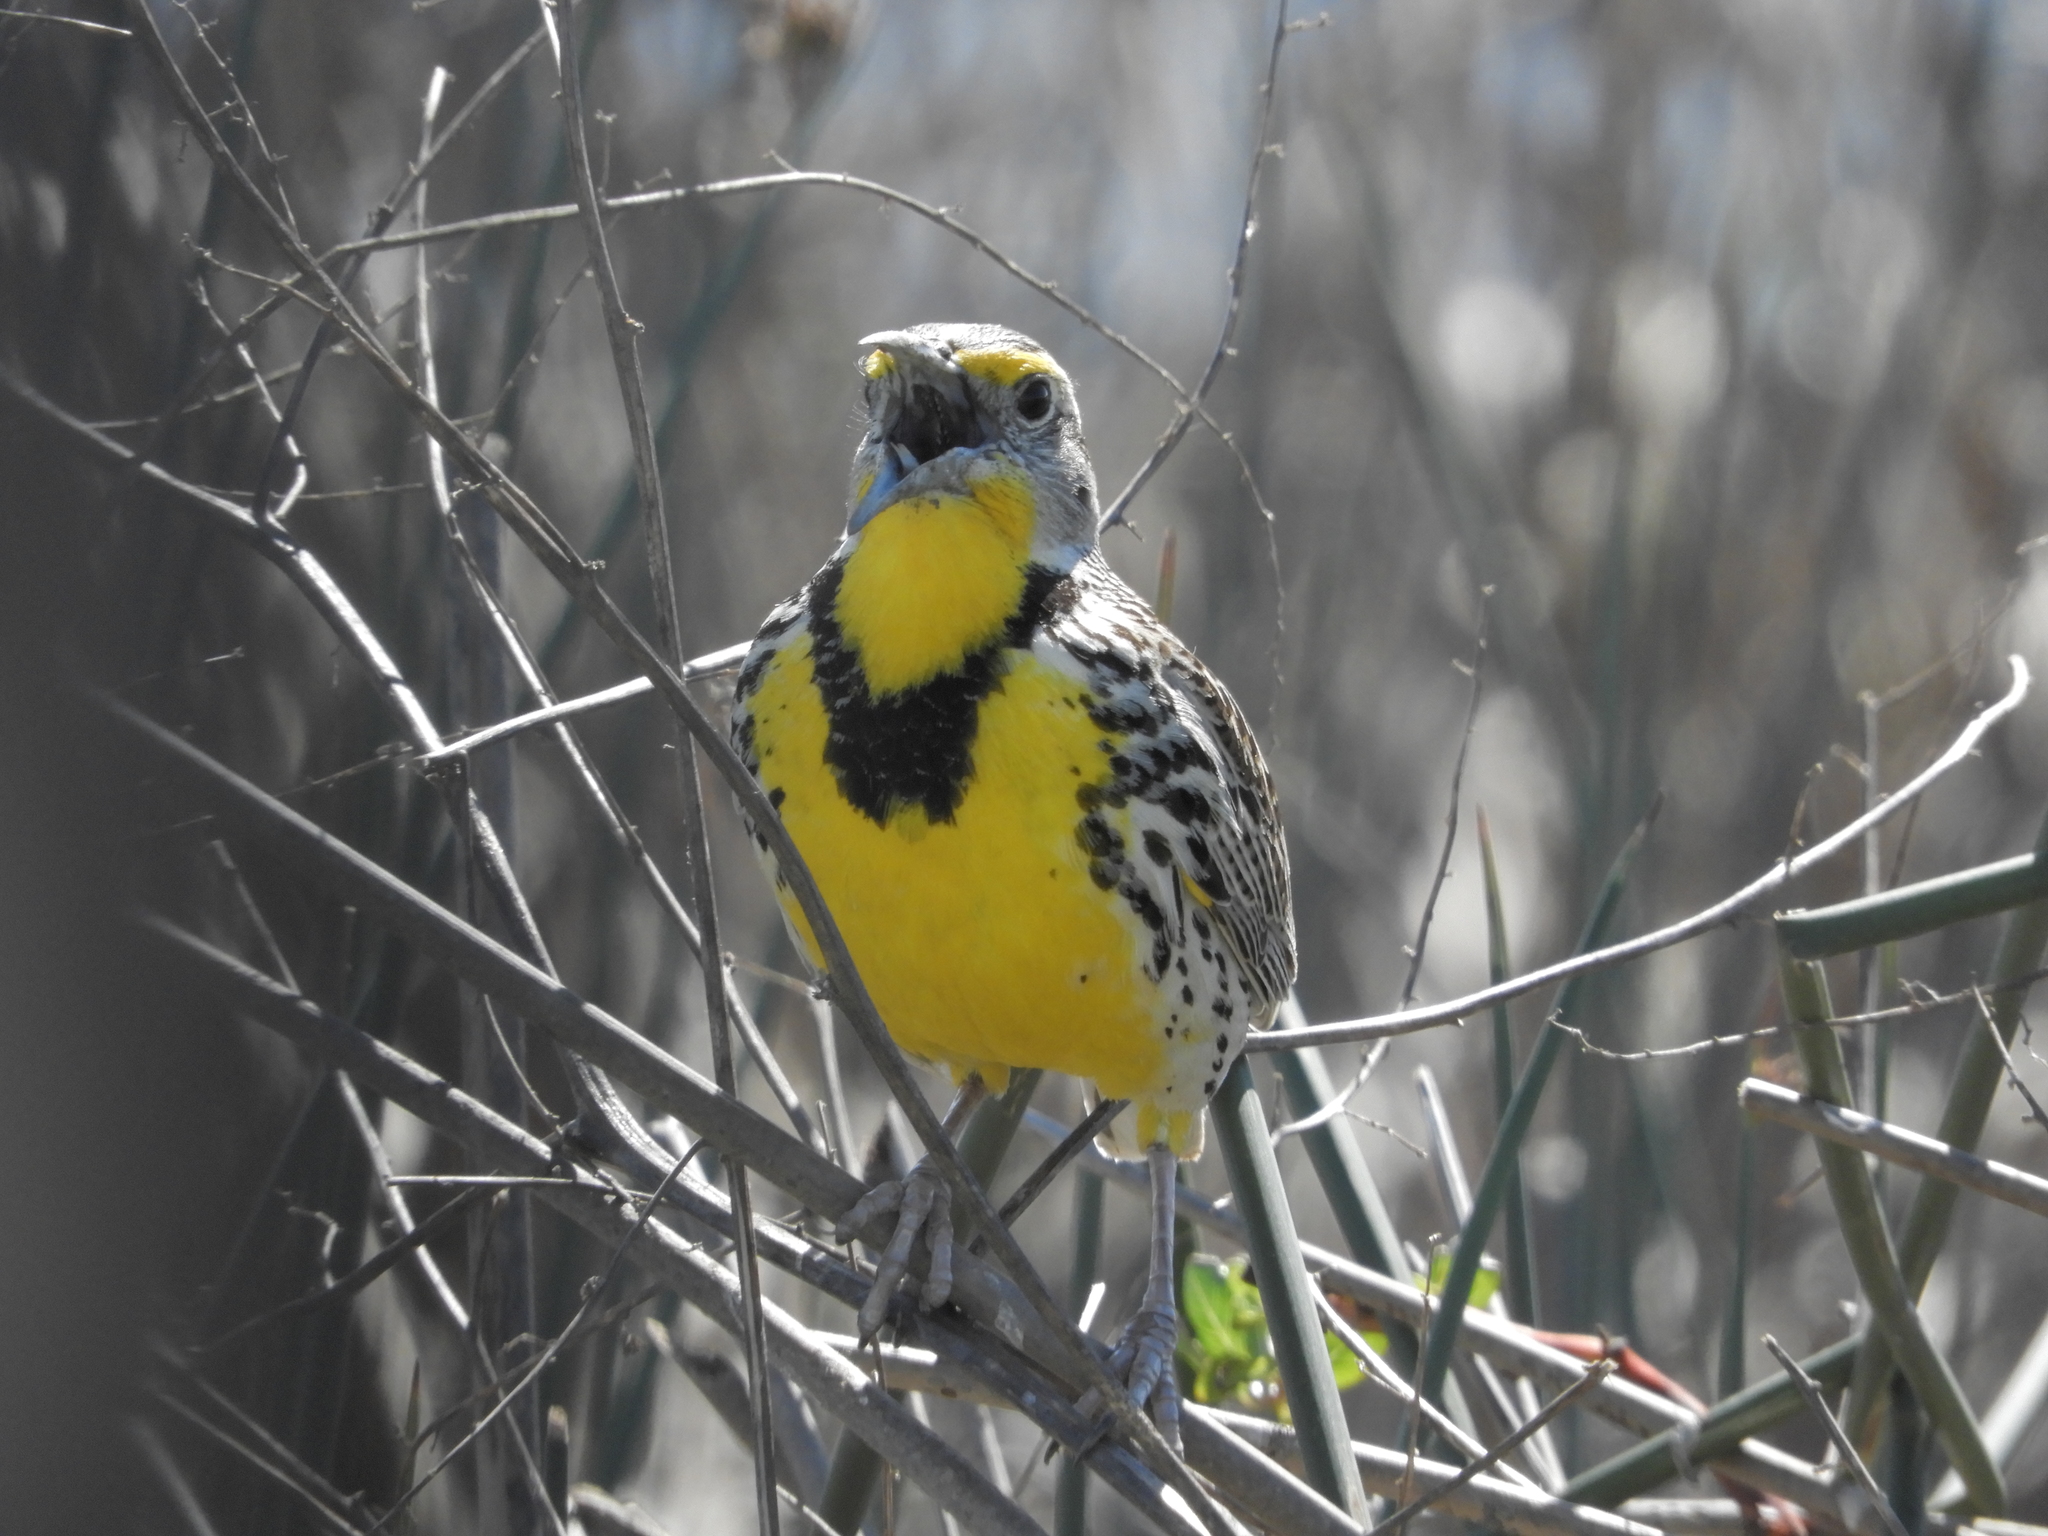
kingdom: Animalia
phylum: Chordata
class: Aves
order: Passeriformes
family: Icteridae
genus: Sturnella
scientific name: Sturnella neglecta
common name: Western meadowlark
